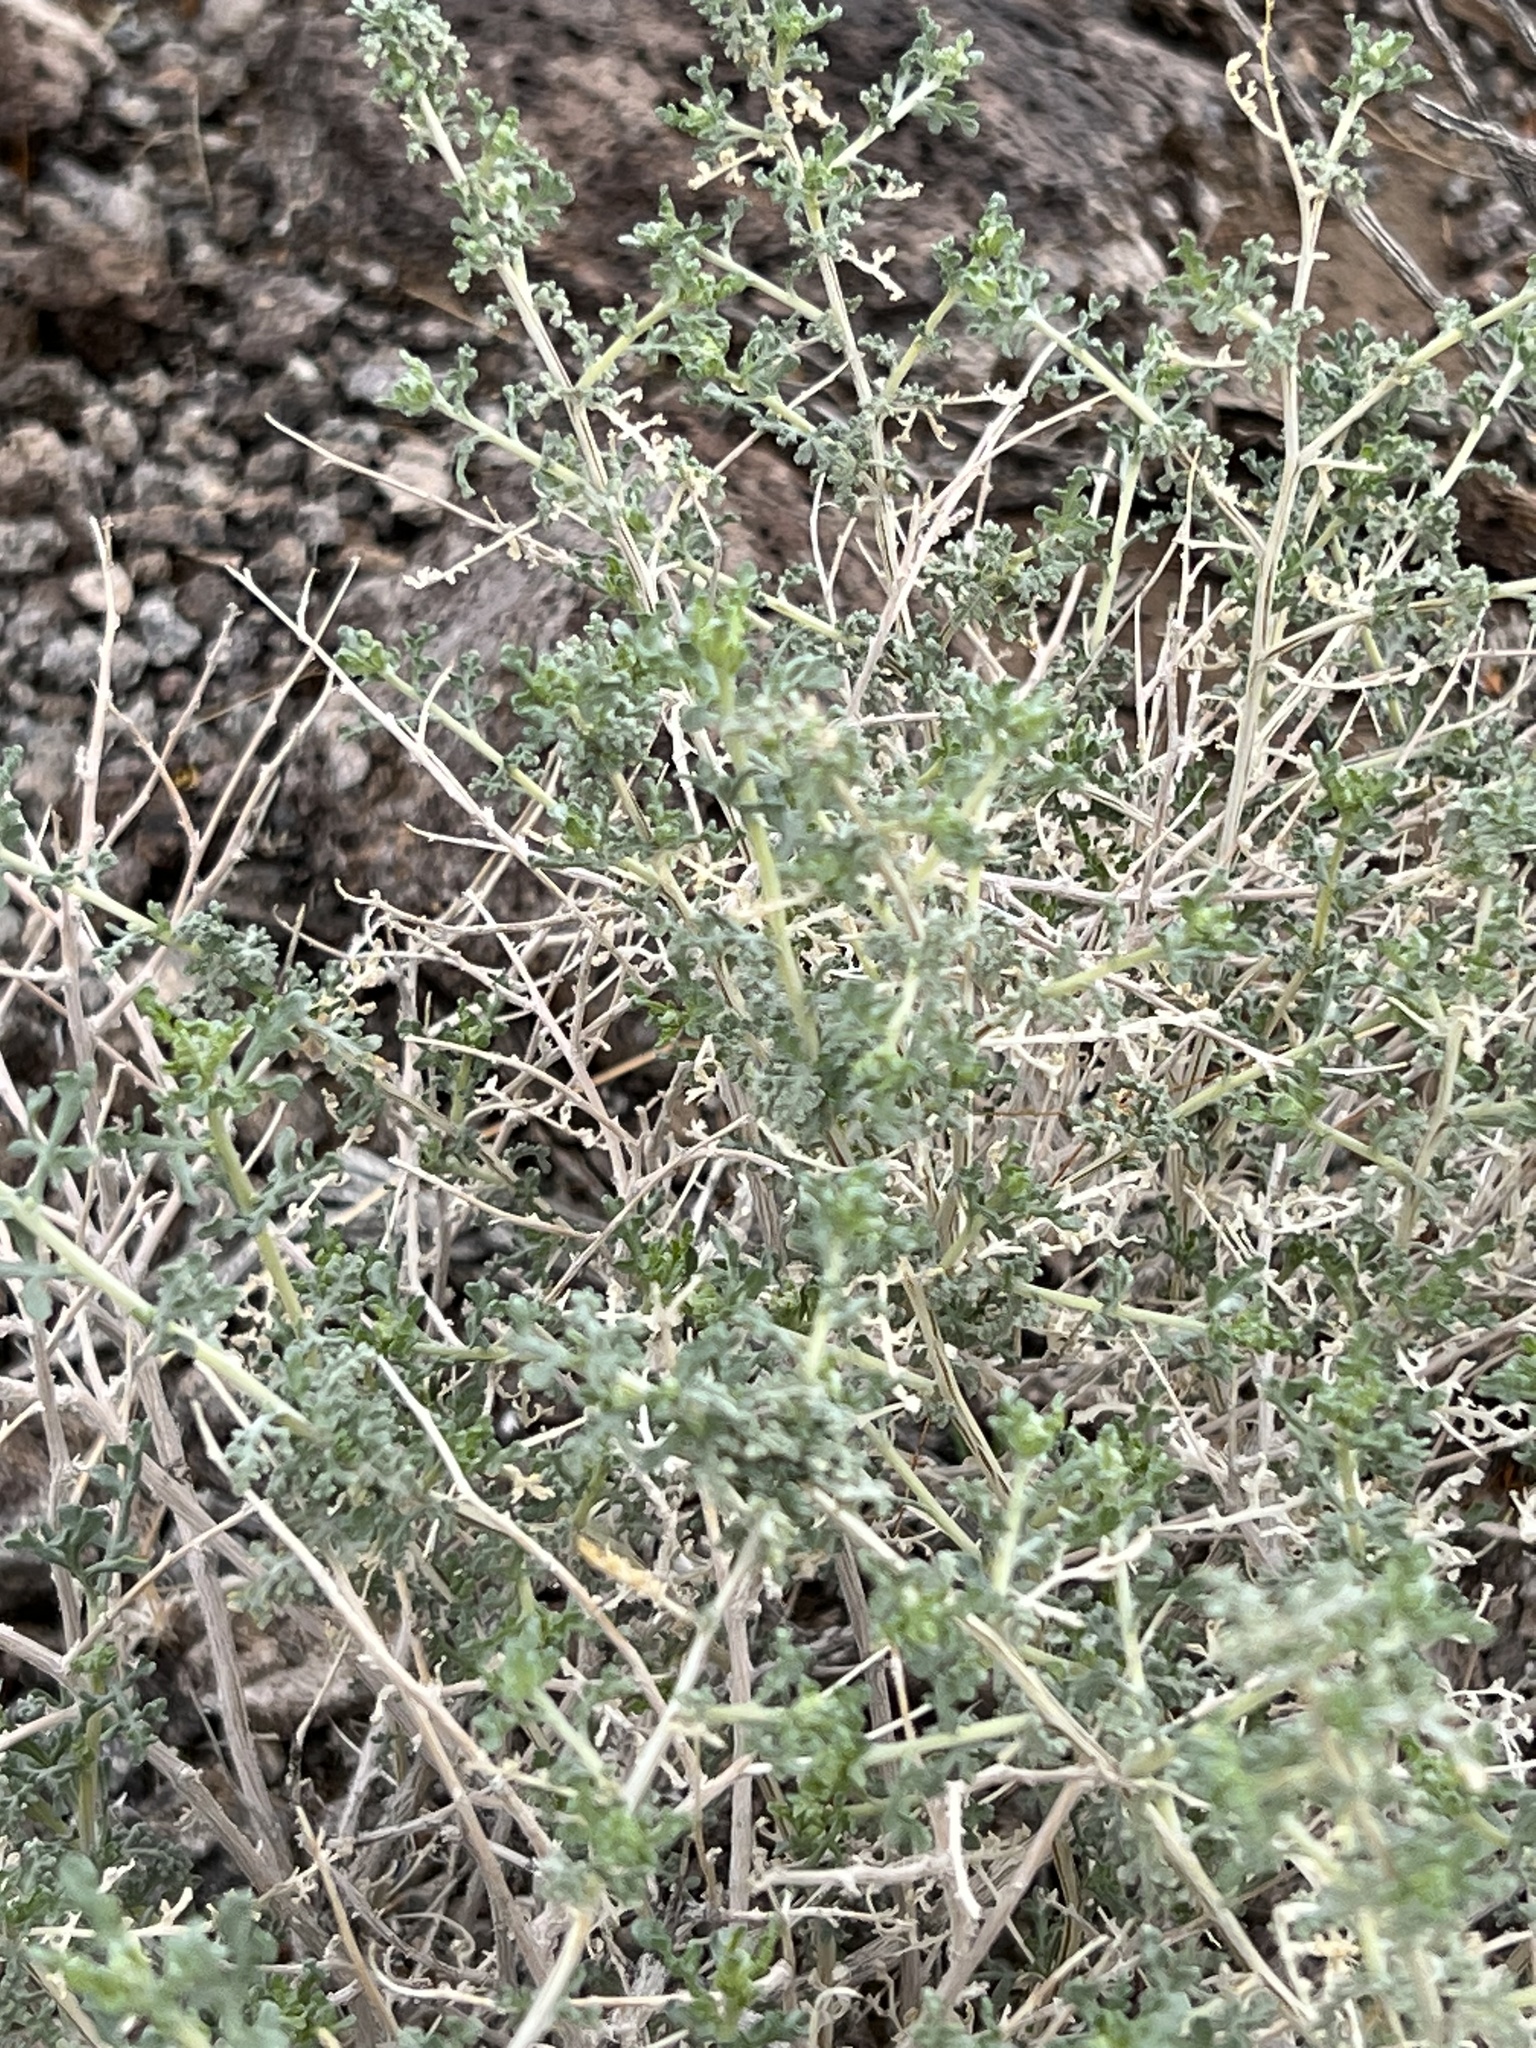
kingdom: Plantae
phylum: Tracheophyta
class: Magnoliopsida
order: Asterales
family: Asteraceae
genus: Ambrosia
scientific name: Ambrosia dumosa
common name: Bur-sage
